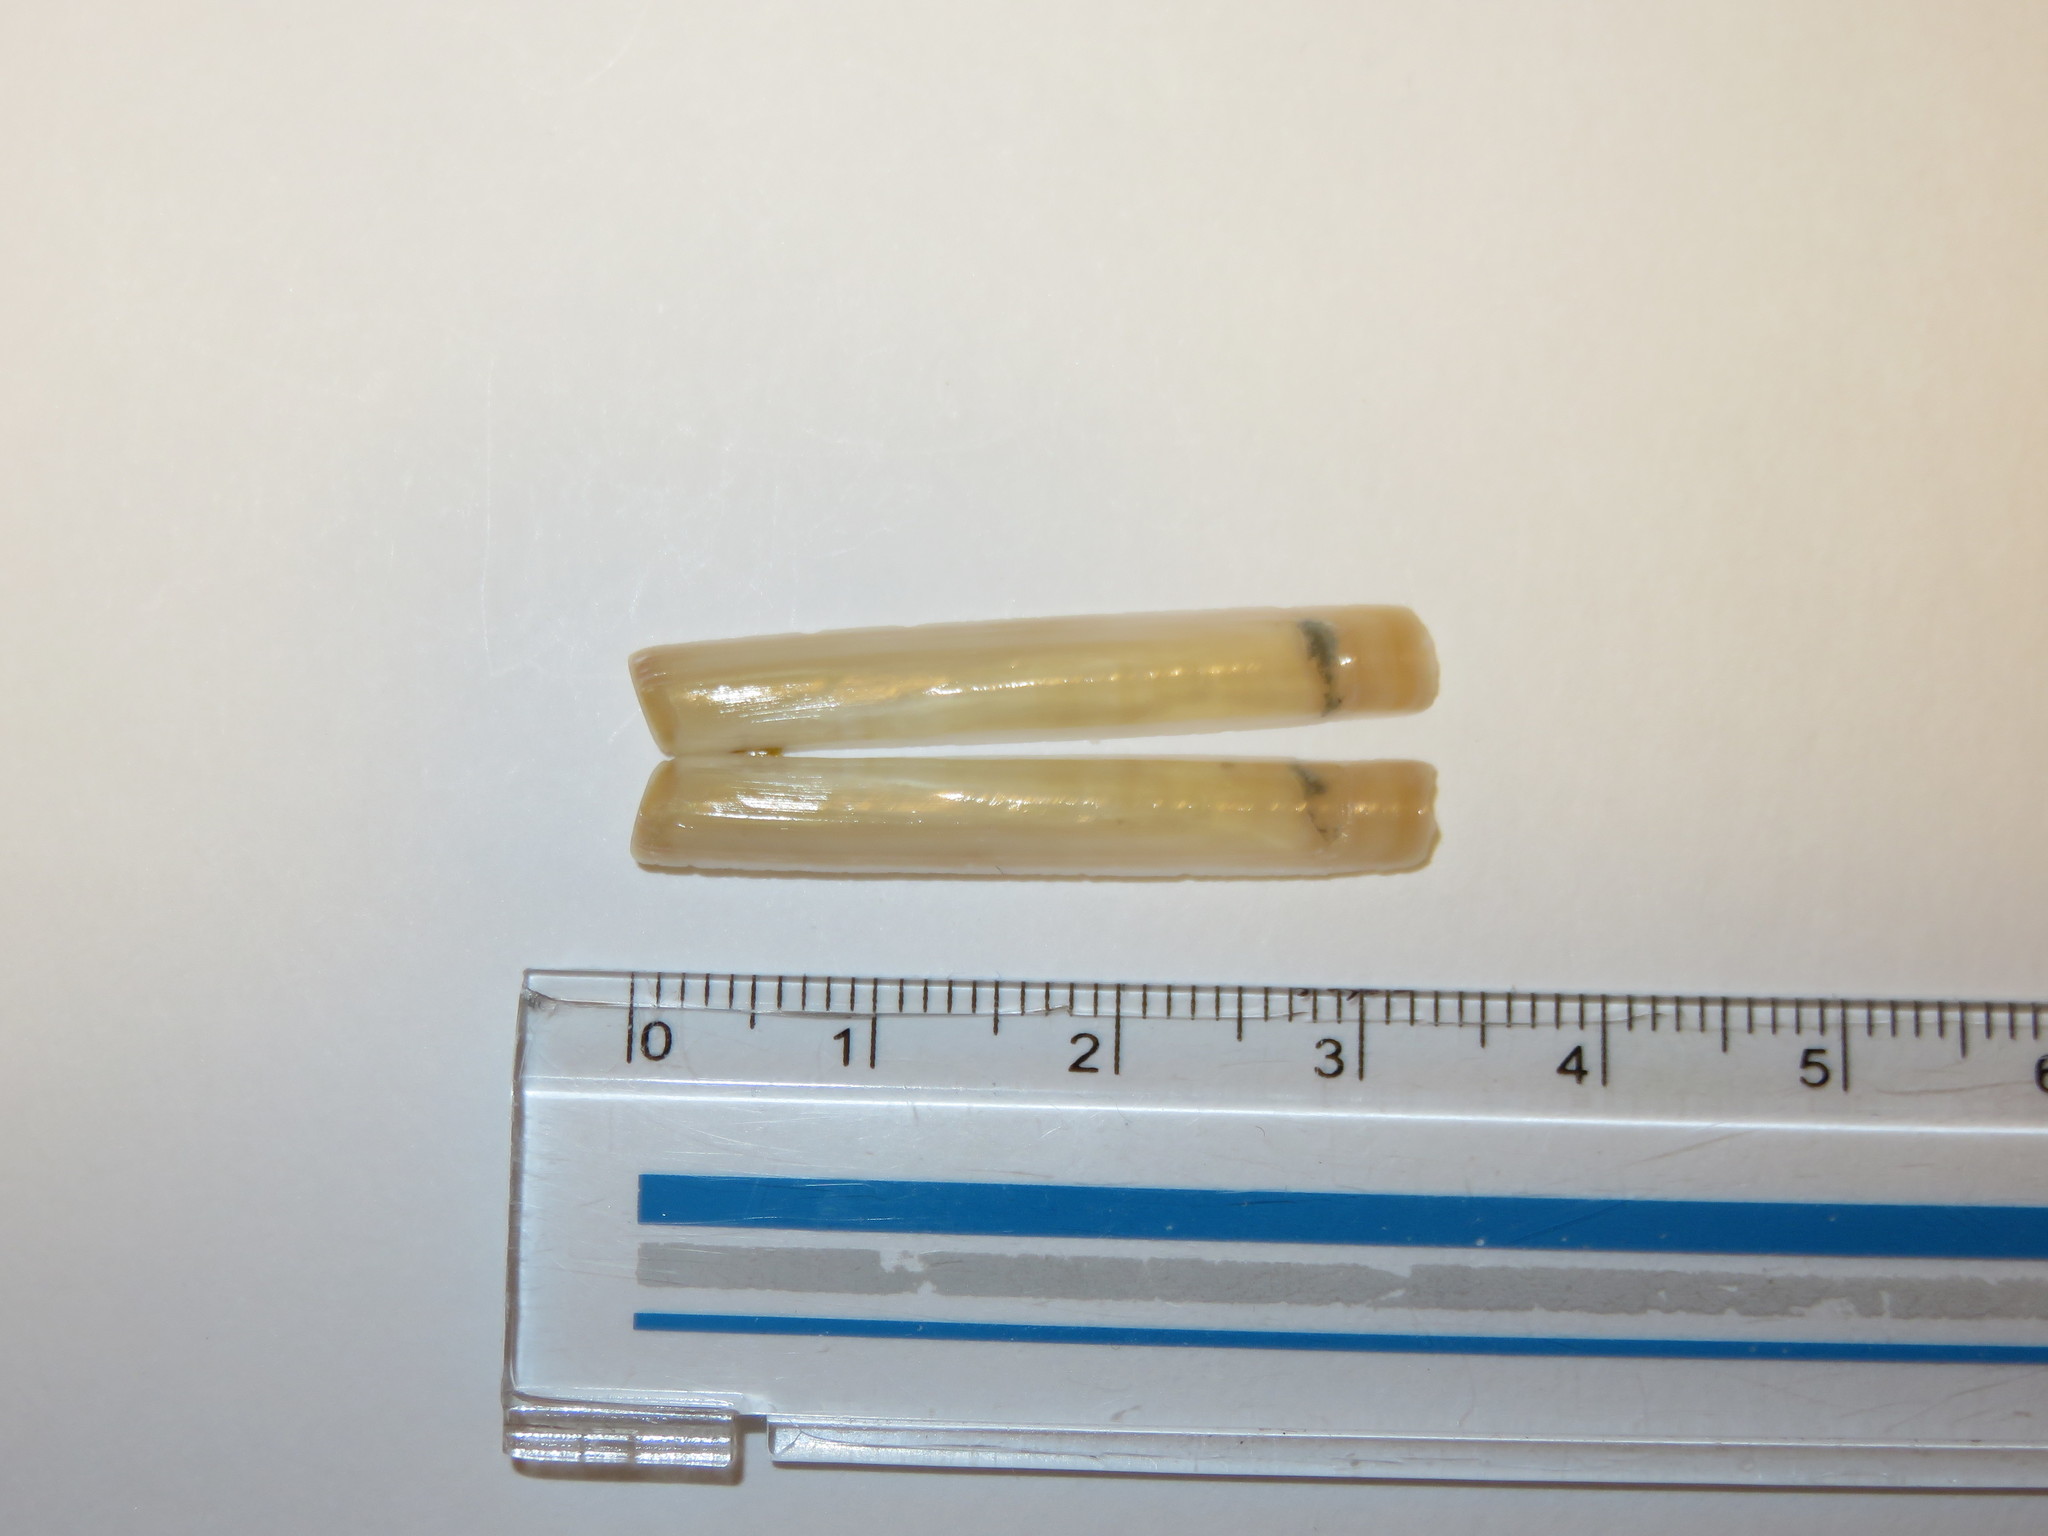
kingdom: Animalia
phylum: Mollusca
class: Bivalvia
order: Adapedonta
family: Solenidae
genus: Solen
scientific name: Solen strictus
